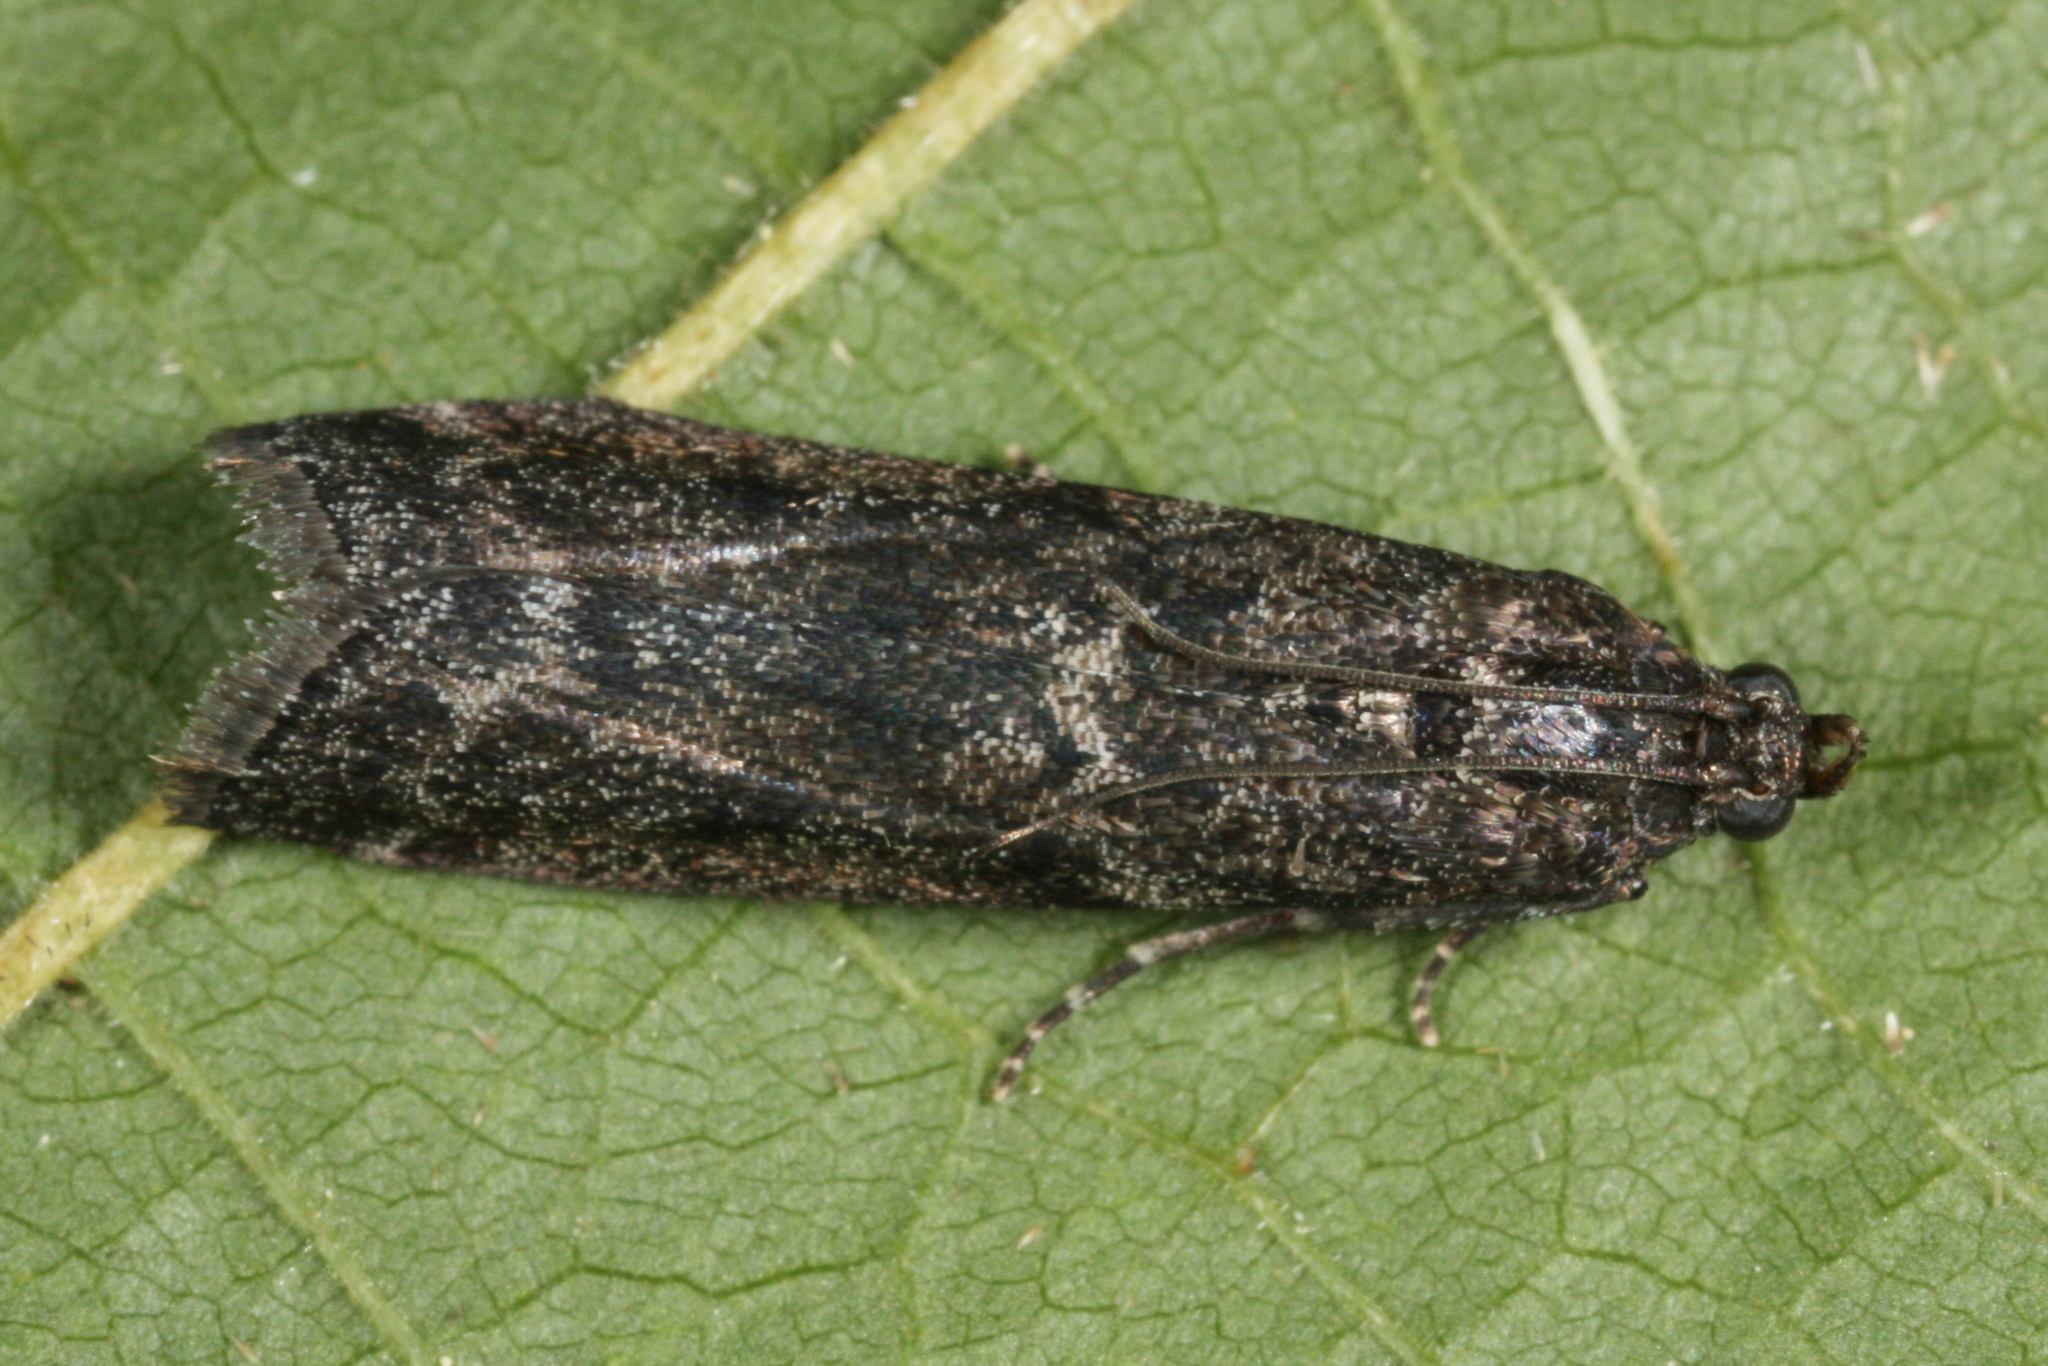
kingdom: Animalia
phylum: Arthropoda
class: Insecta
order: Lepidoptera
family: Pyralidae
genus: Pyla
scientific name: Pyla fusca
